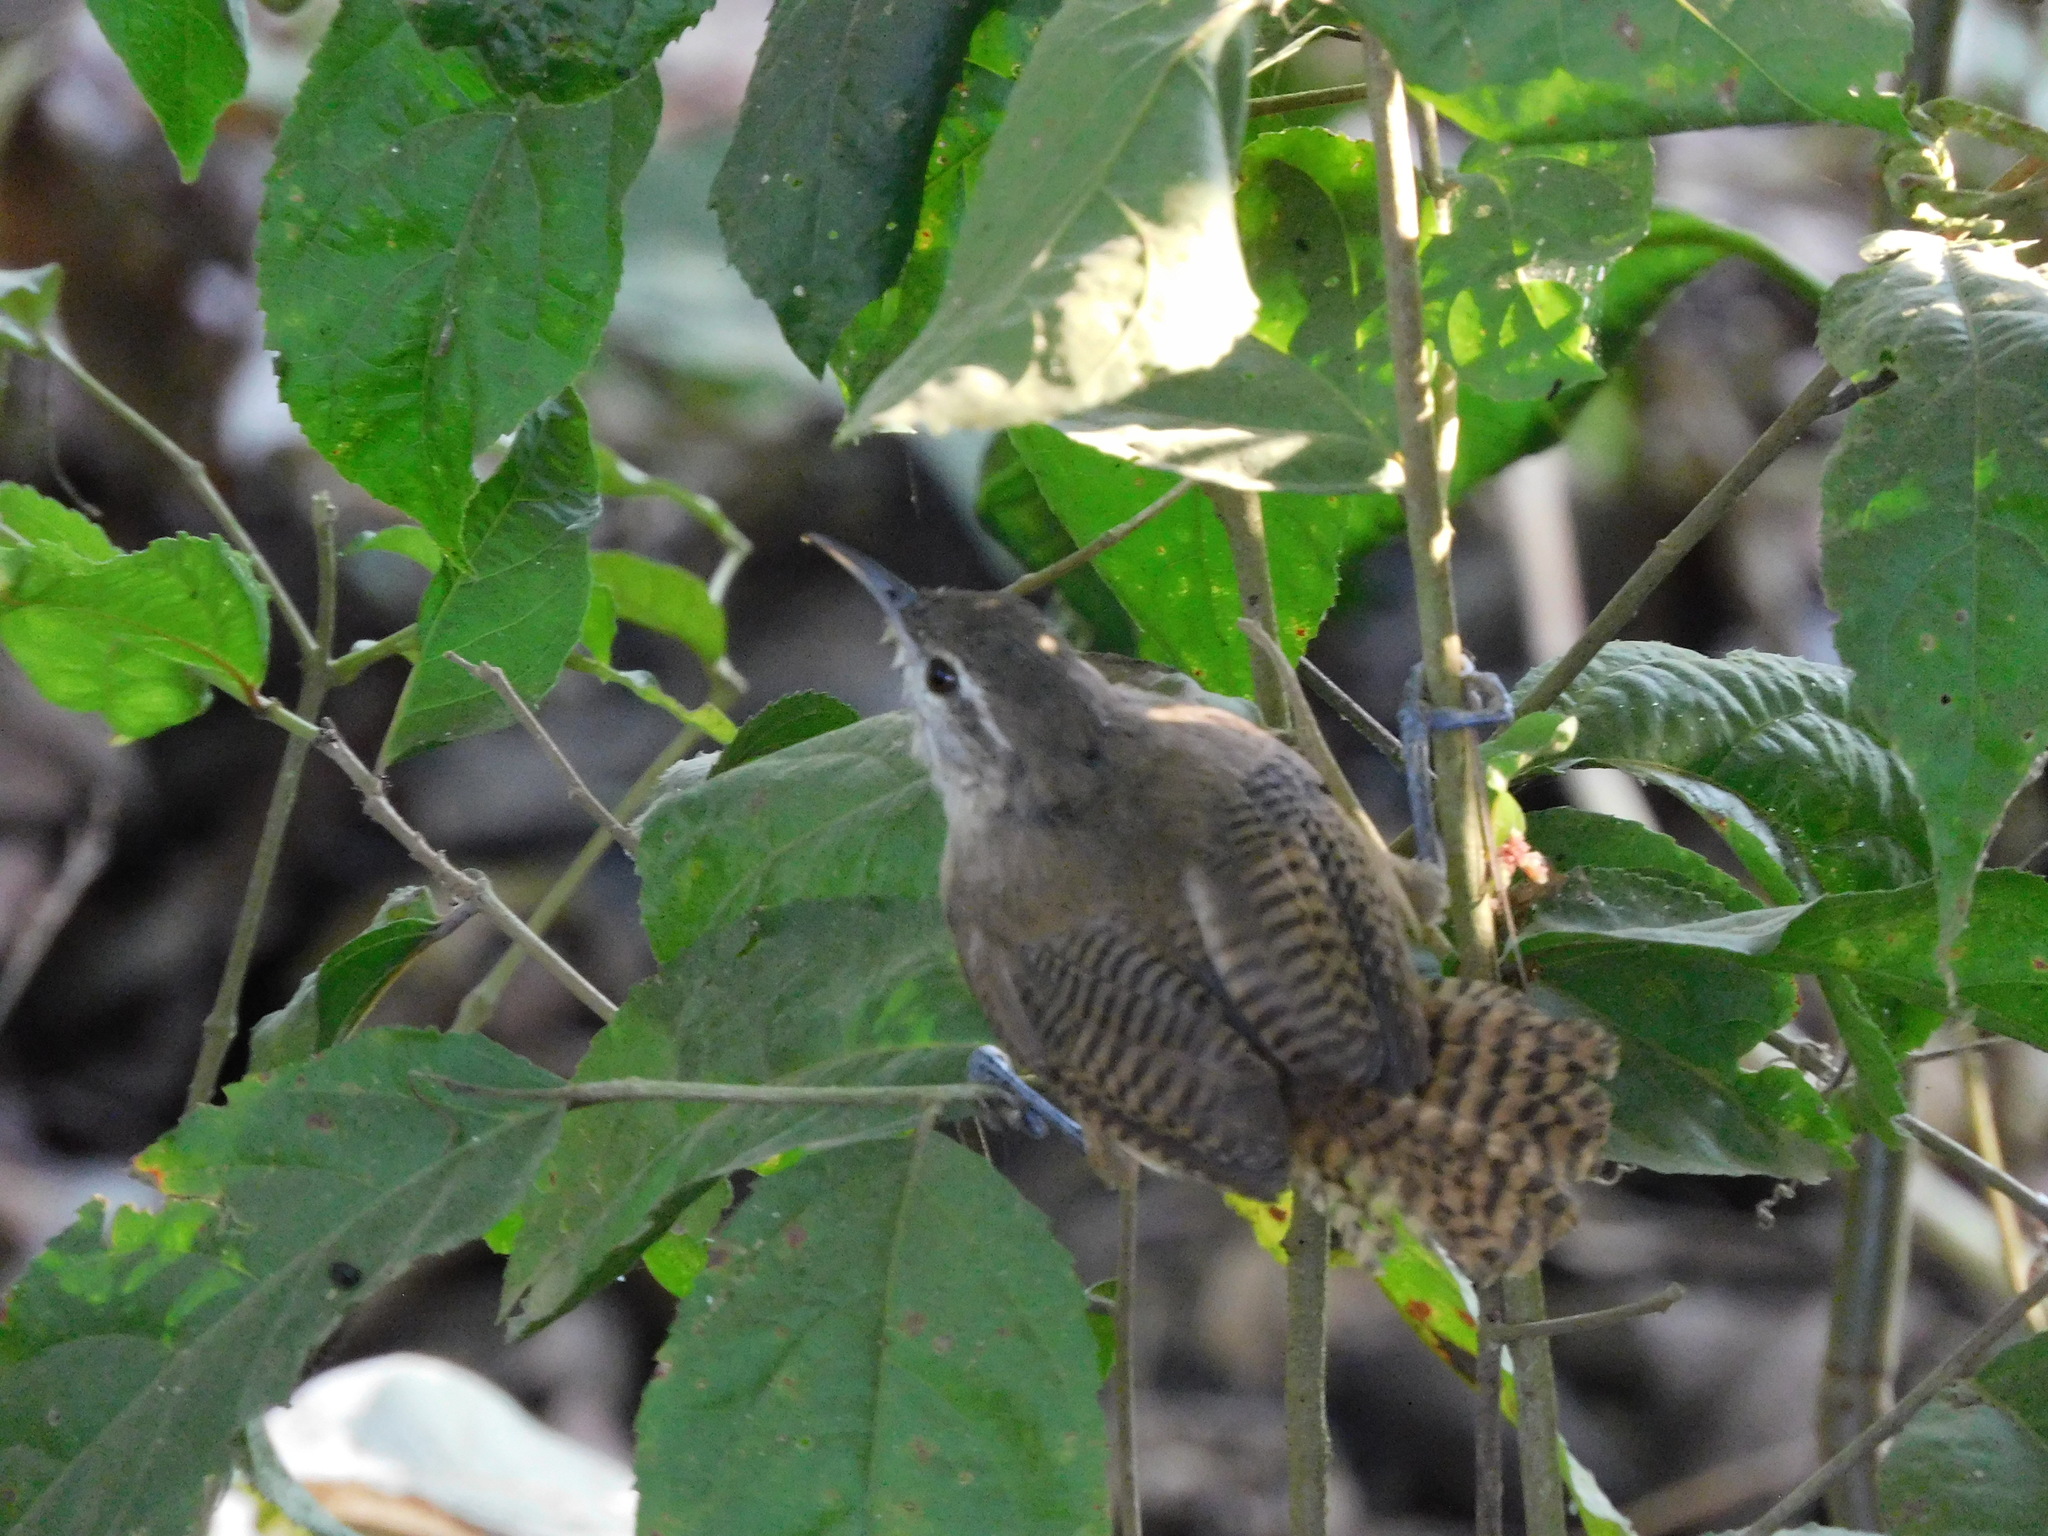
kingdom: Animalia
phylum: Chordata
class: Aves
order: Passeriformes
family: Troglodytidae
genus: Cantorchilus
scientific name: Cantorchilus leucotis
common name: Buff-breasted wren
